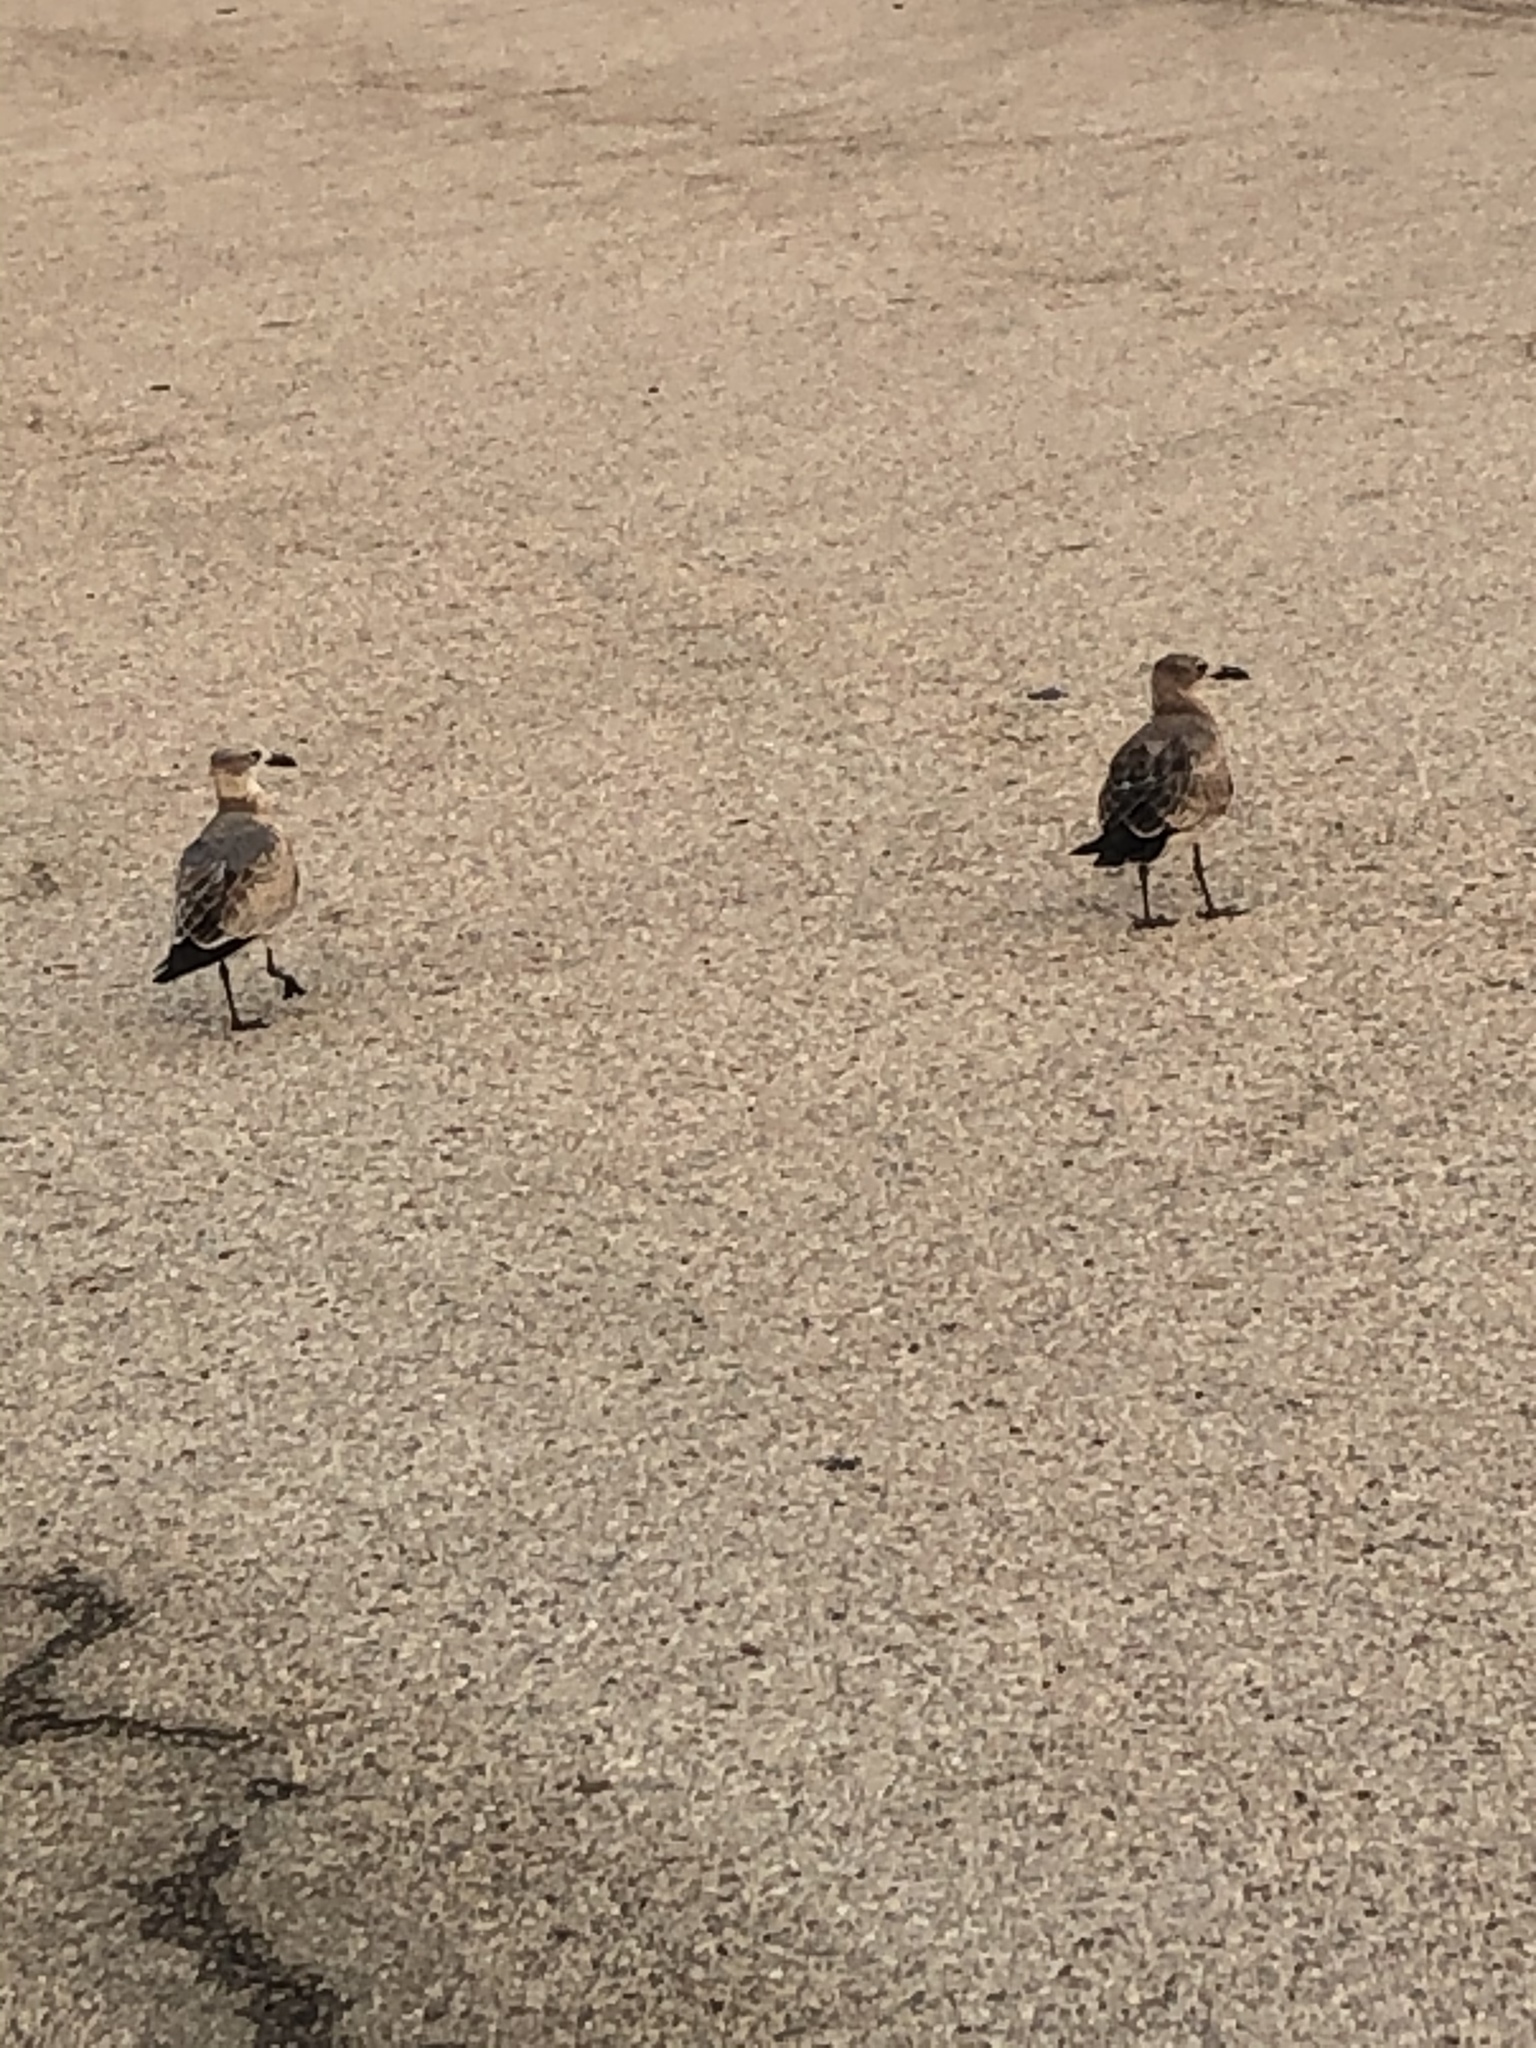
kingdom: Animalia
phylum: Chordata
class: Aves
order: Charadriiformes
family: Laridae
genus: Leucophaeus
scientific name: Leucophaeus atricilla
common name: Laughing gull
